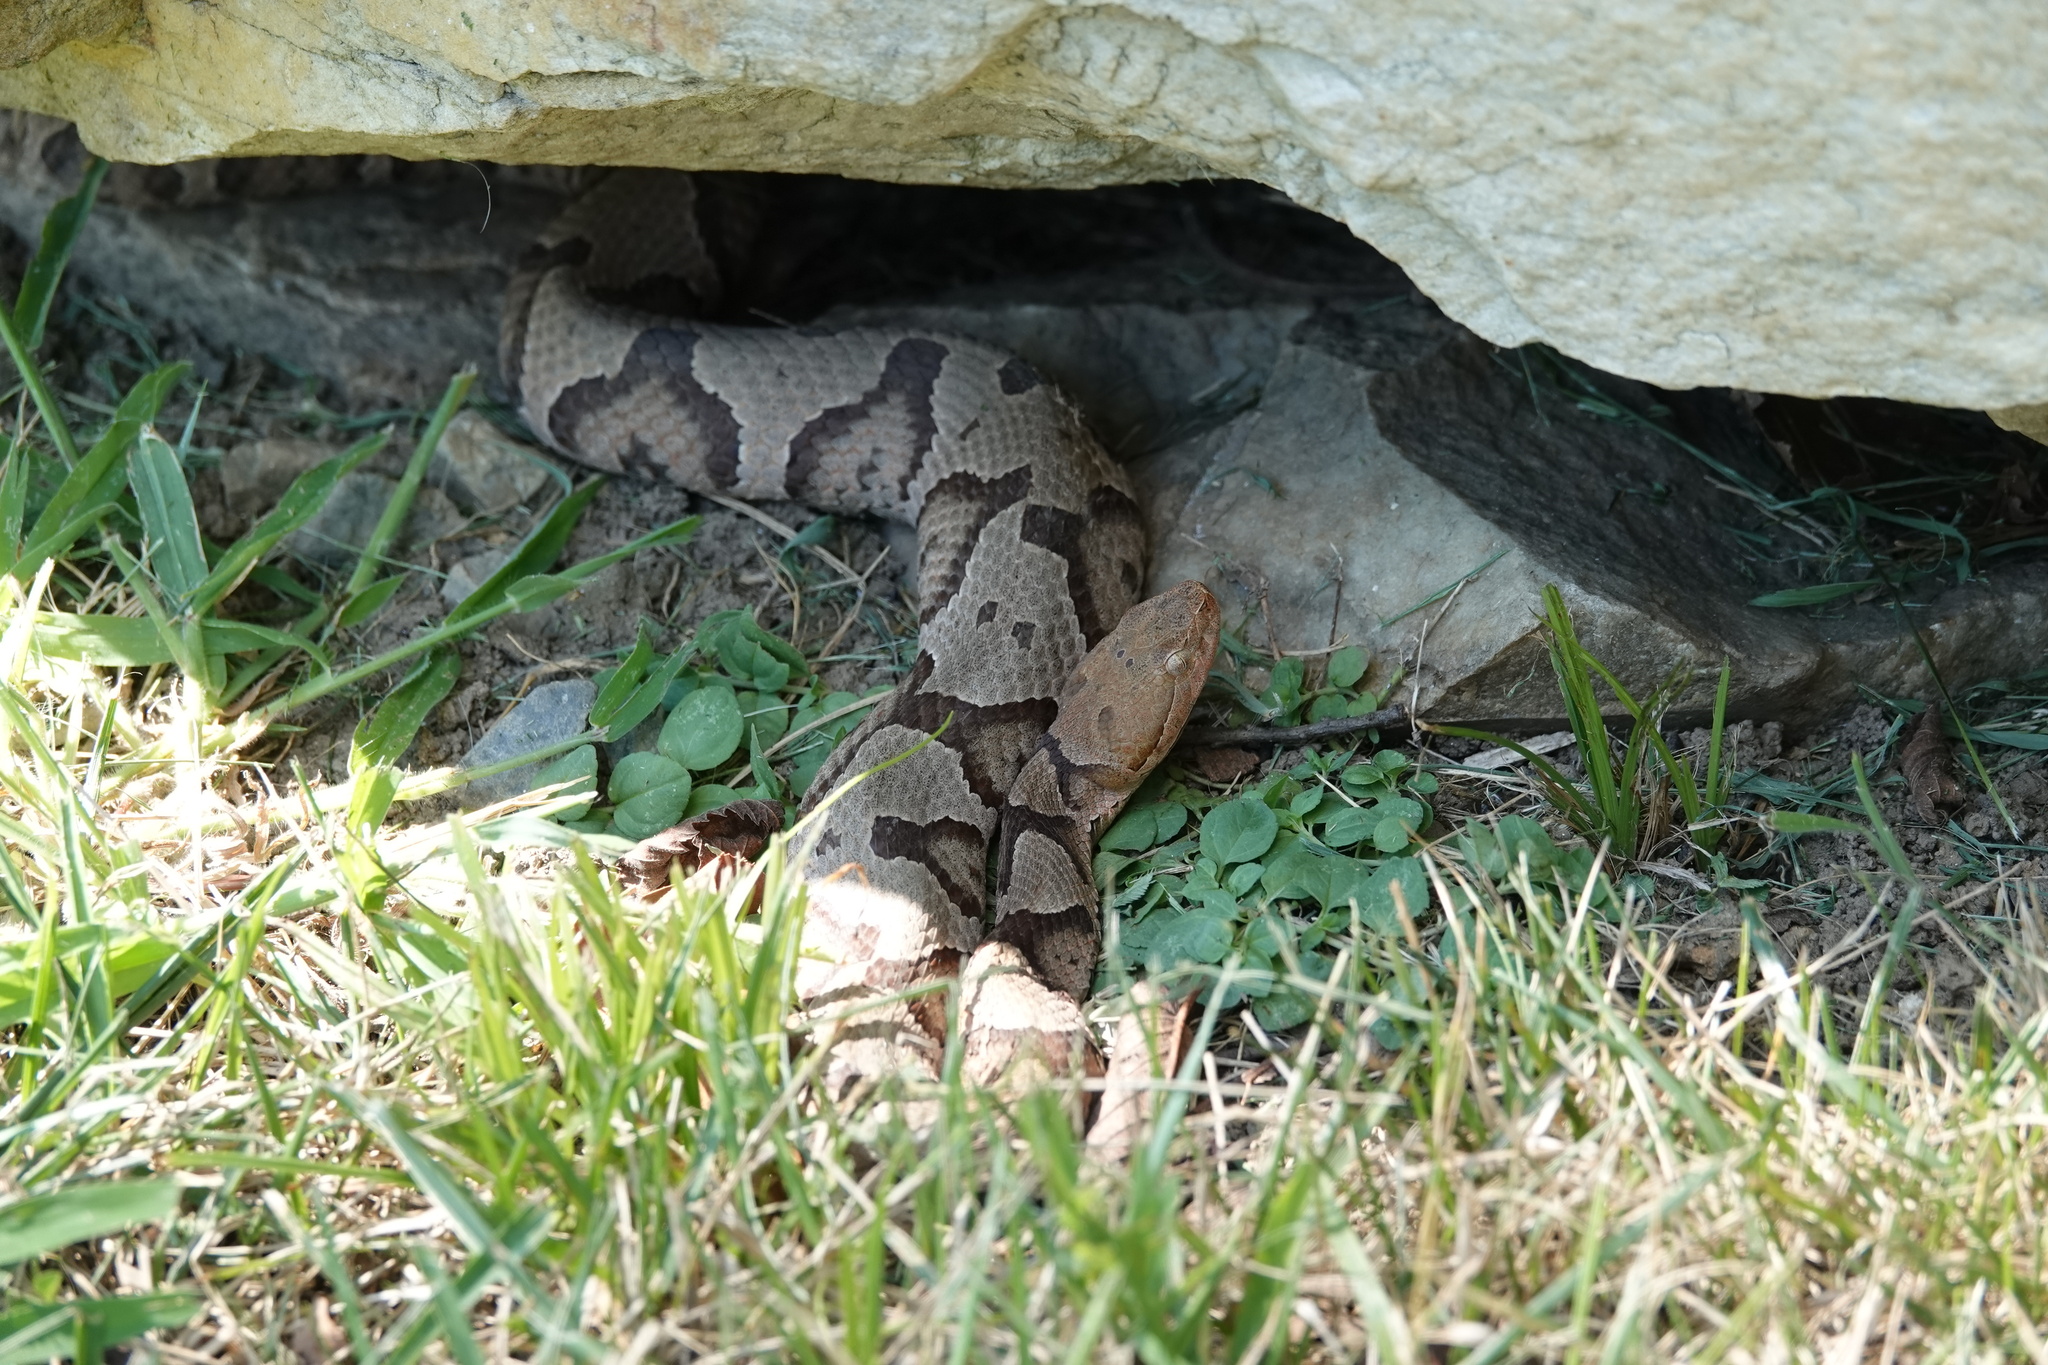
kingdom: Animalia
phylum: Chordata
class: Squamata
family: Viperidae
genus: Agkistrodon
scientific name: Agkistrodon contortrix
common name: Northern copperhead
